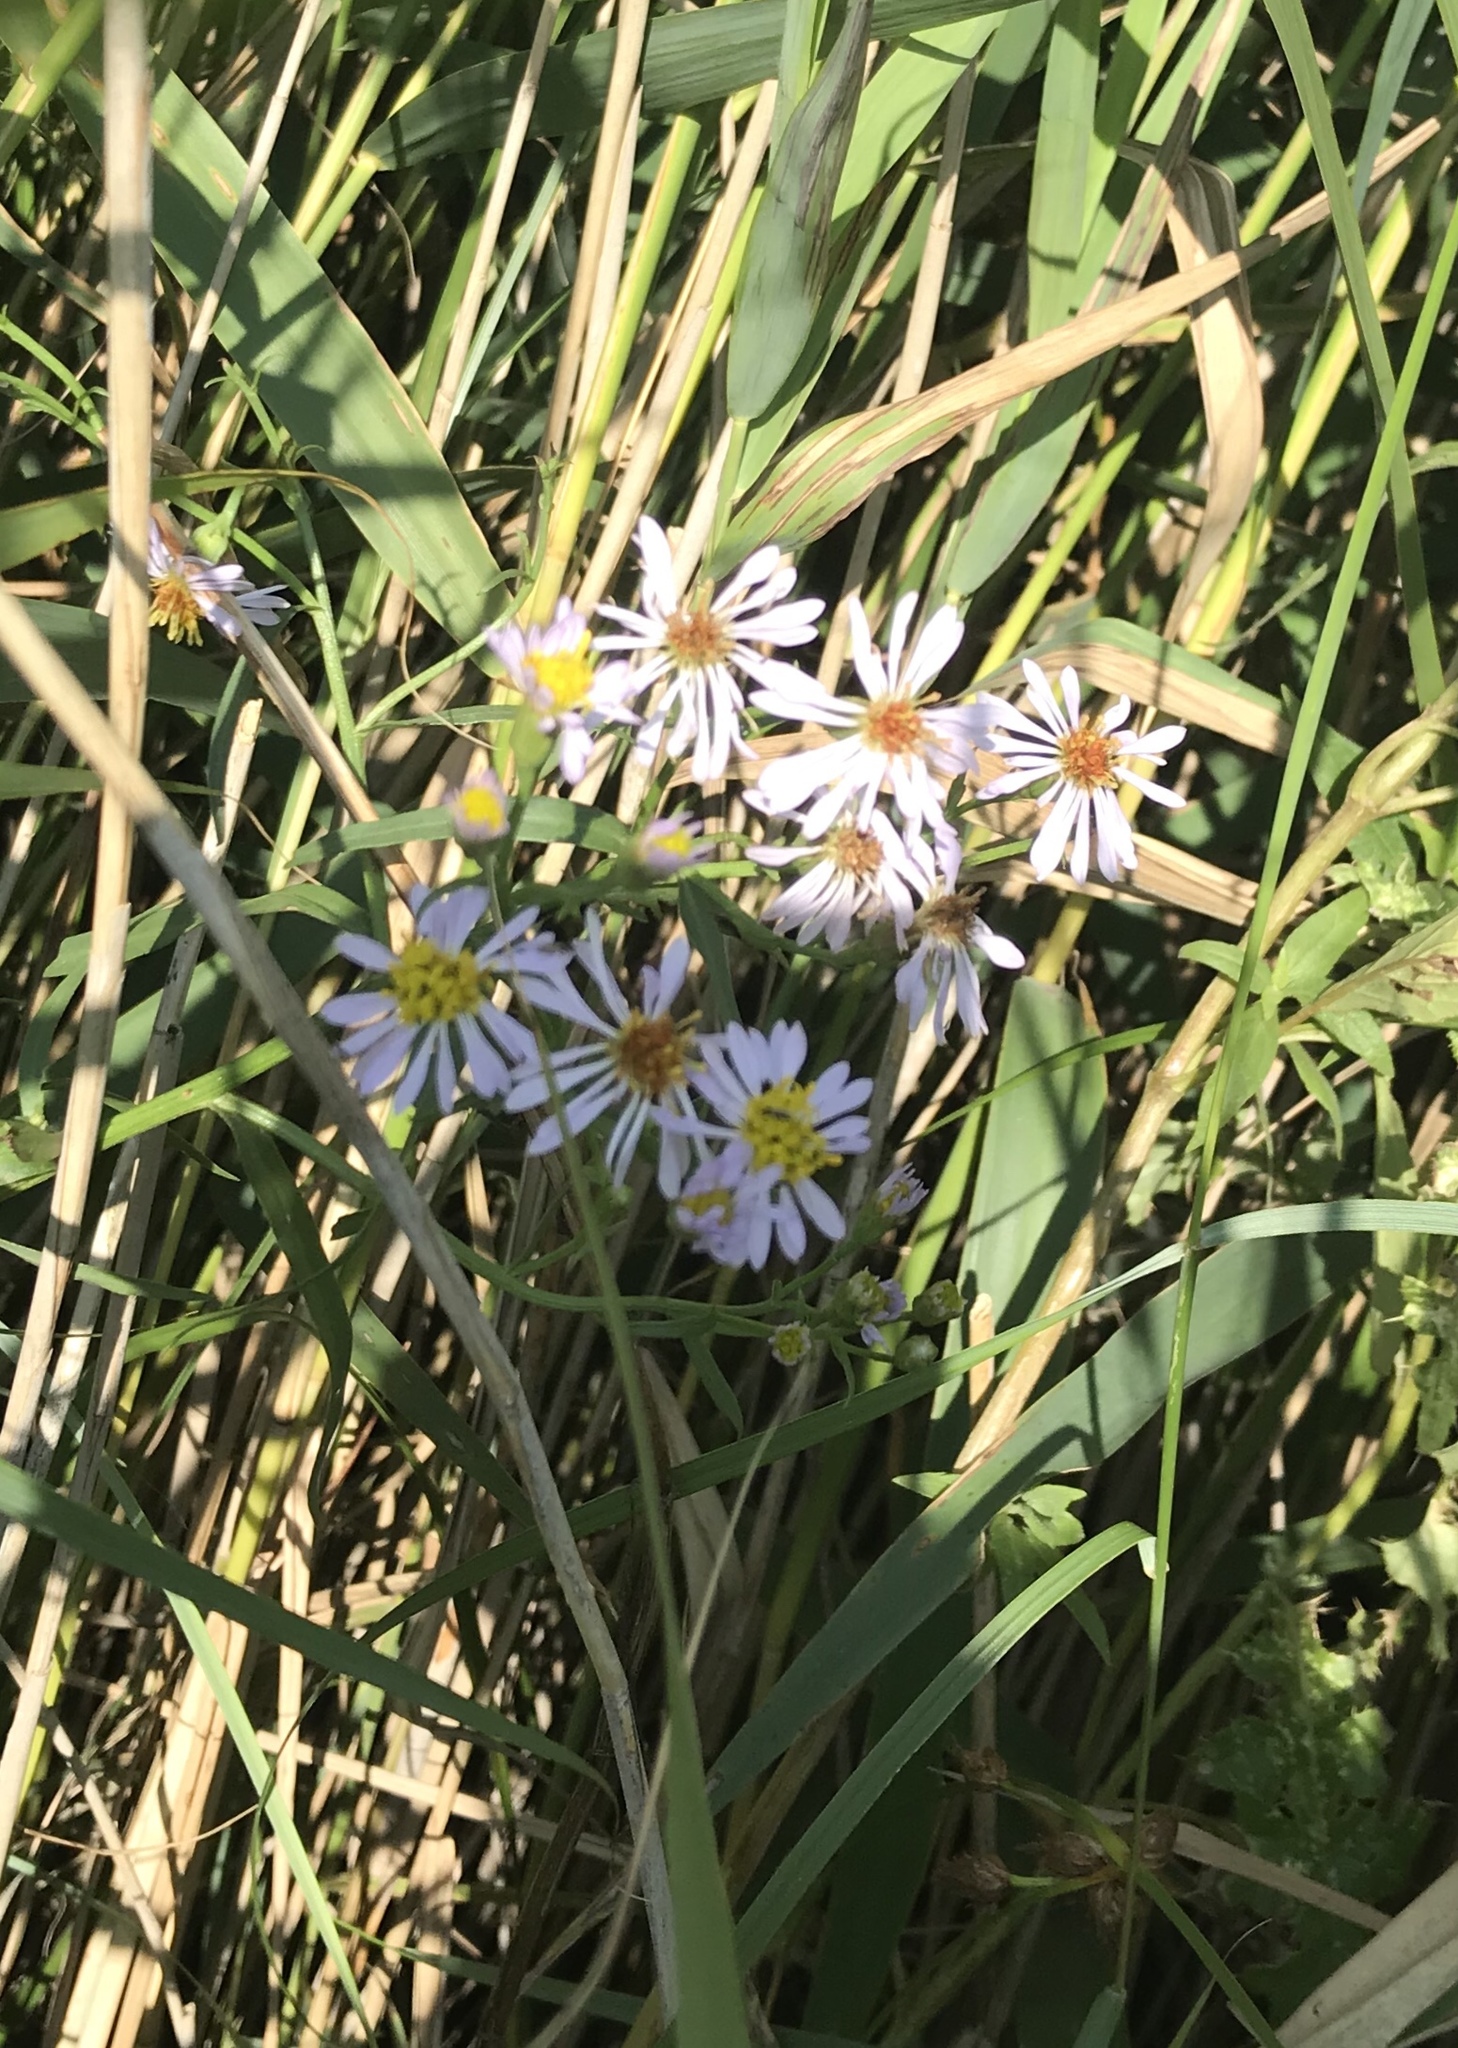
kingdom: Plantae
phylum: Tracheophyta
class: Magnoliopsida
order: Asterales
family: Asteraceae
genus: Tripolium
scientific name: Tripolium pannonicum
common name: Sea aster
